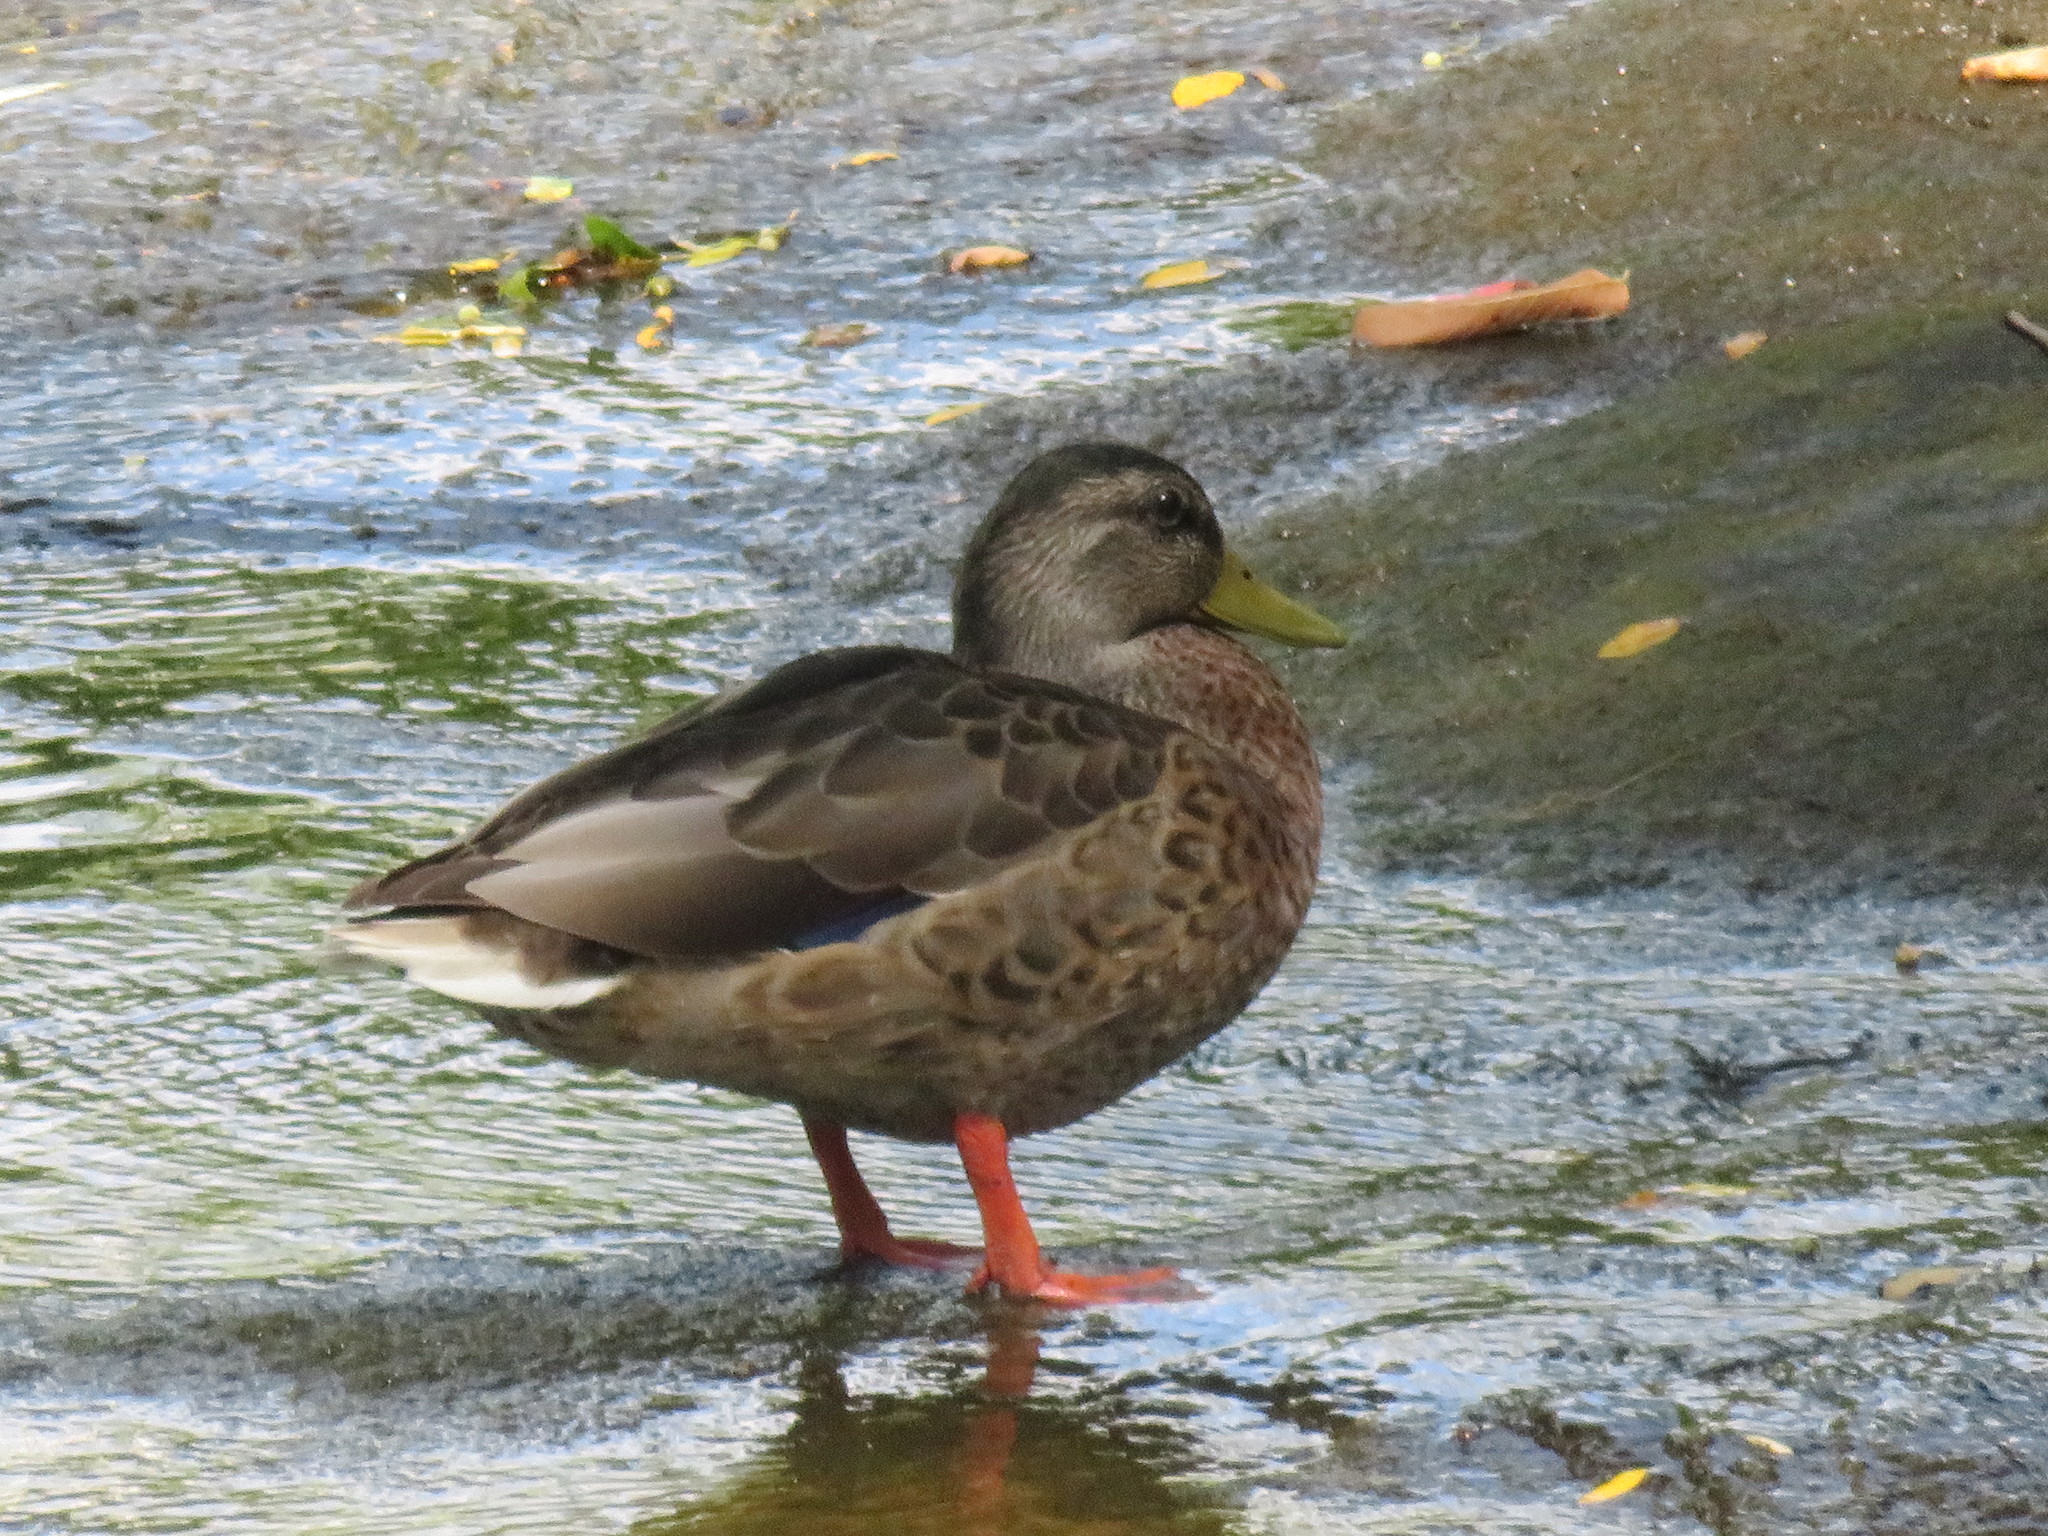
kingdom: Animalia
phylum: Chordata
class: Aves
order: Anseriformes
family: Anatidae
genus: Anas
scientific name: Anas platyrhynchos
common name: Mallard
